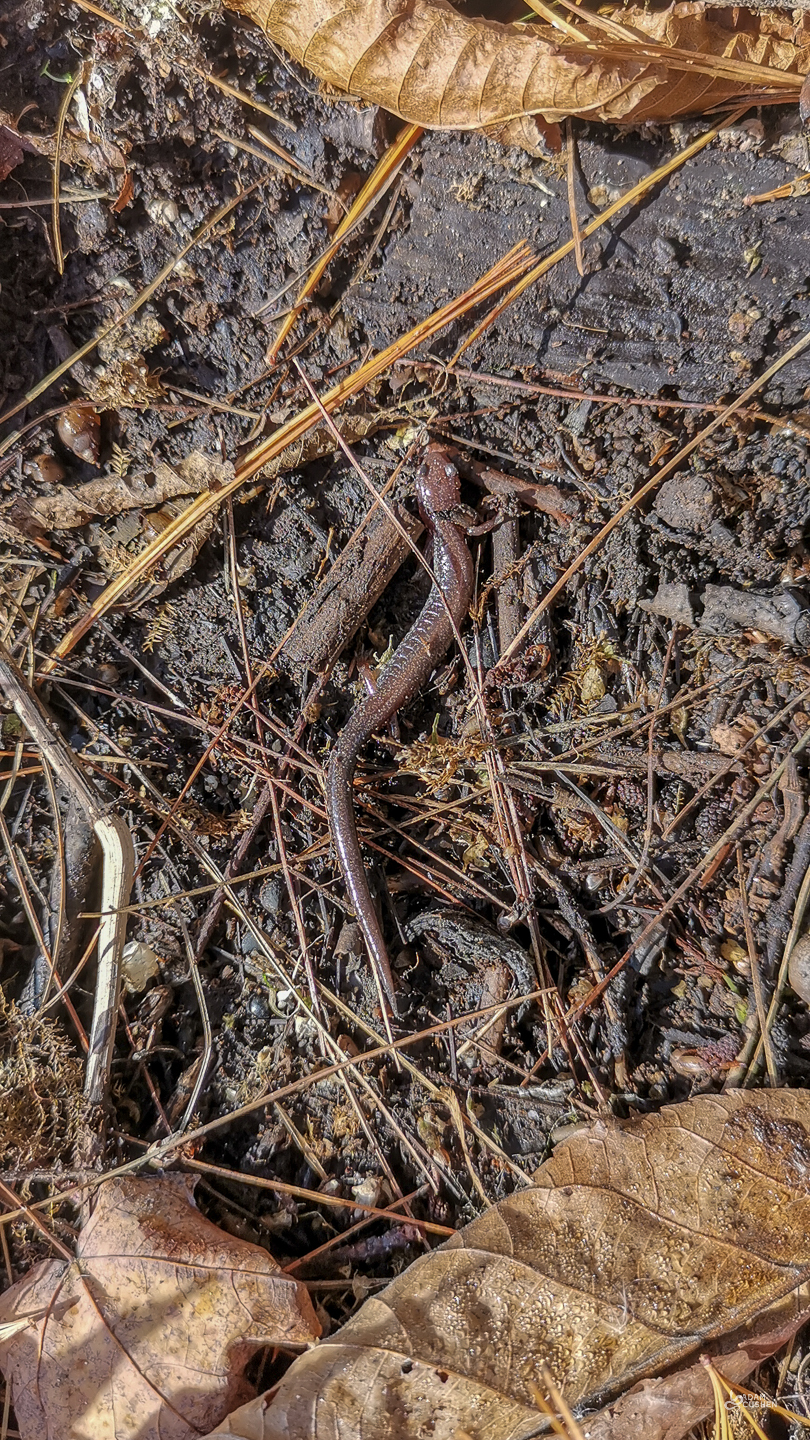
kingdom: Animalia
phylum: Chordata
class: Amphibia
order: Caudata
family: Plethodontidae
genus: Plethodon
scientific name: Plethodon cinereus
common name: Redback salamander
